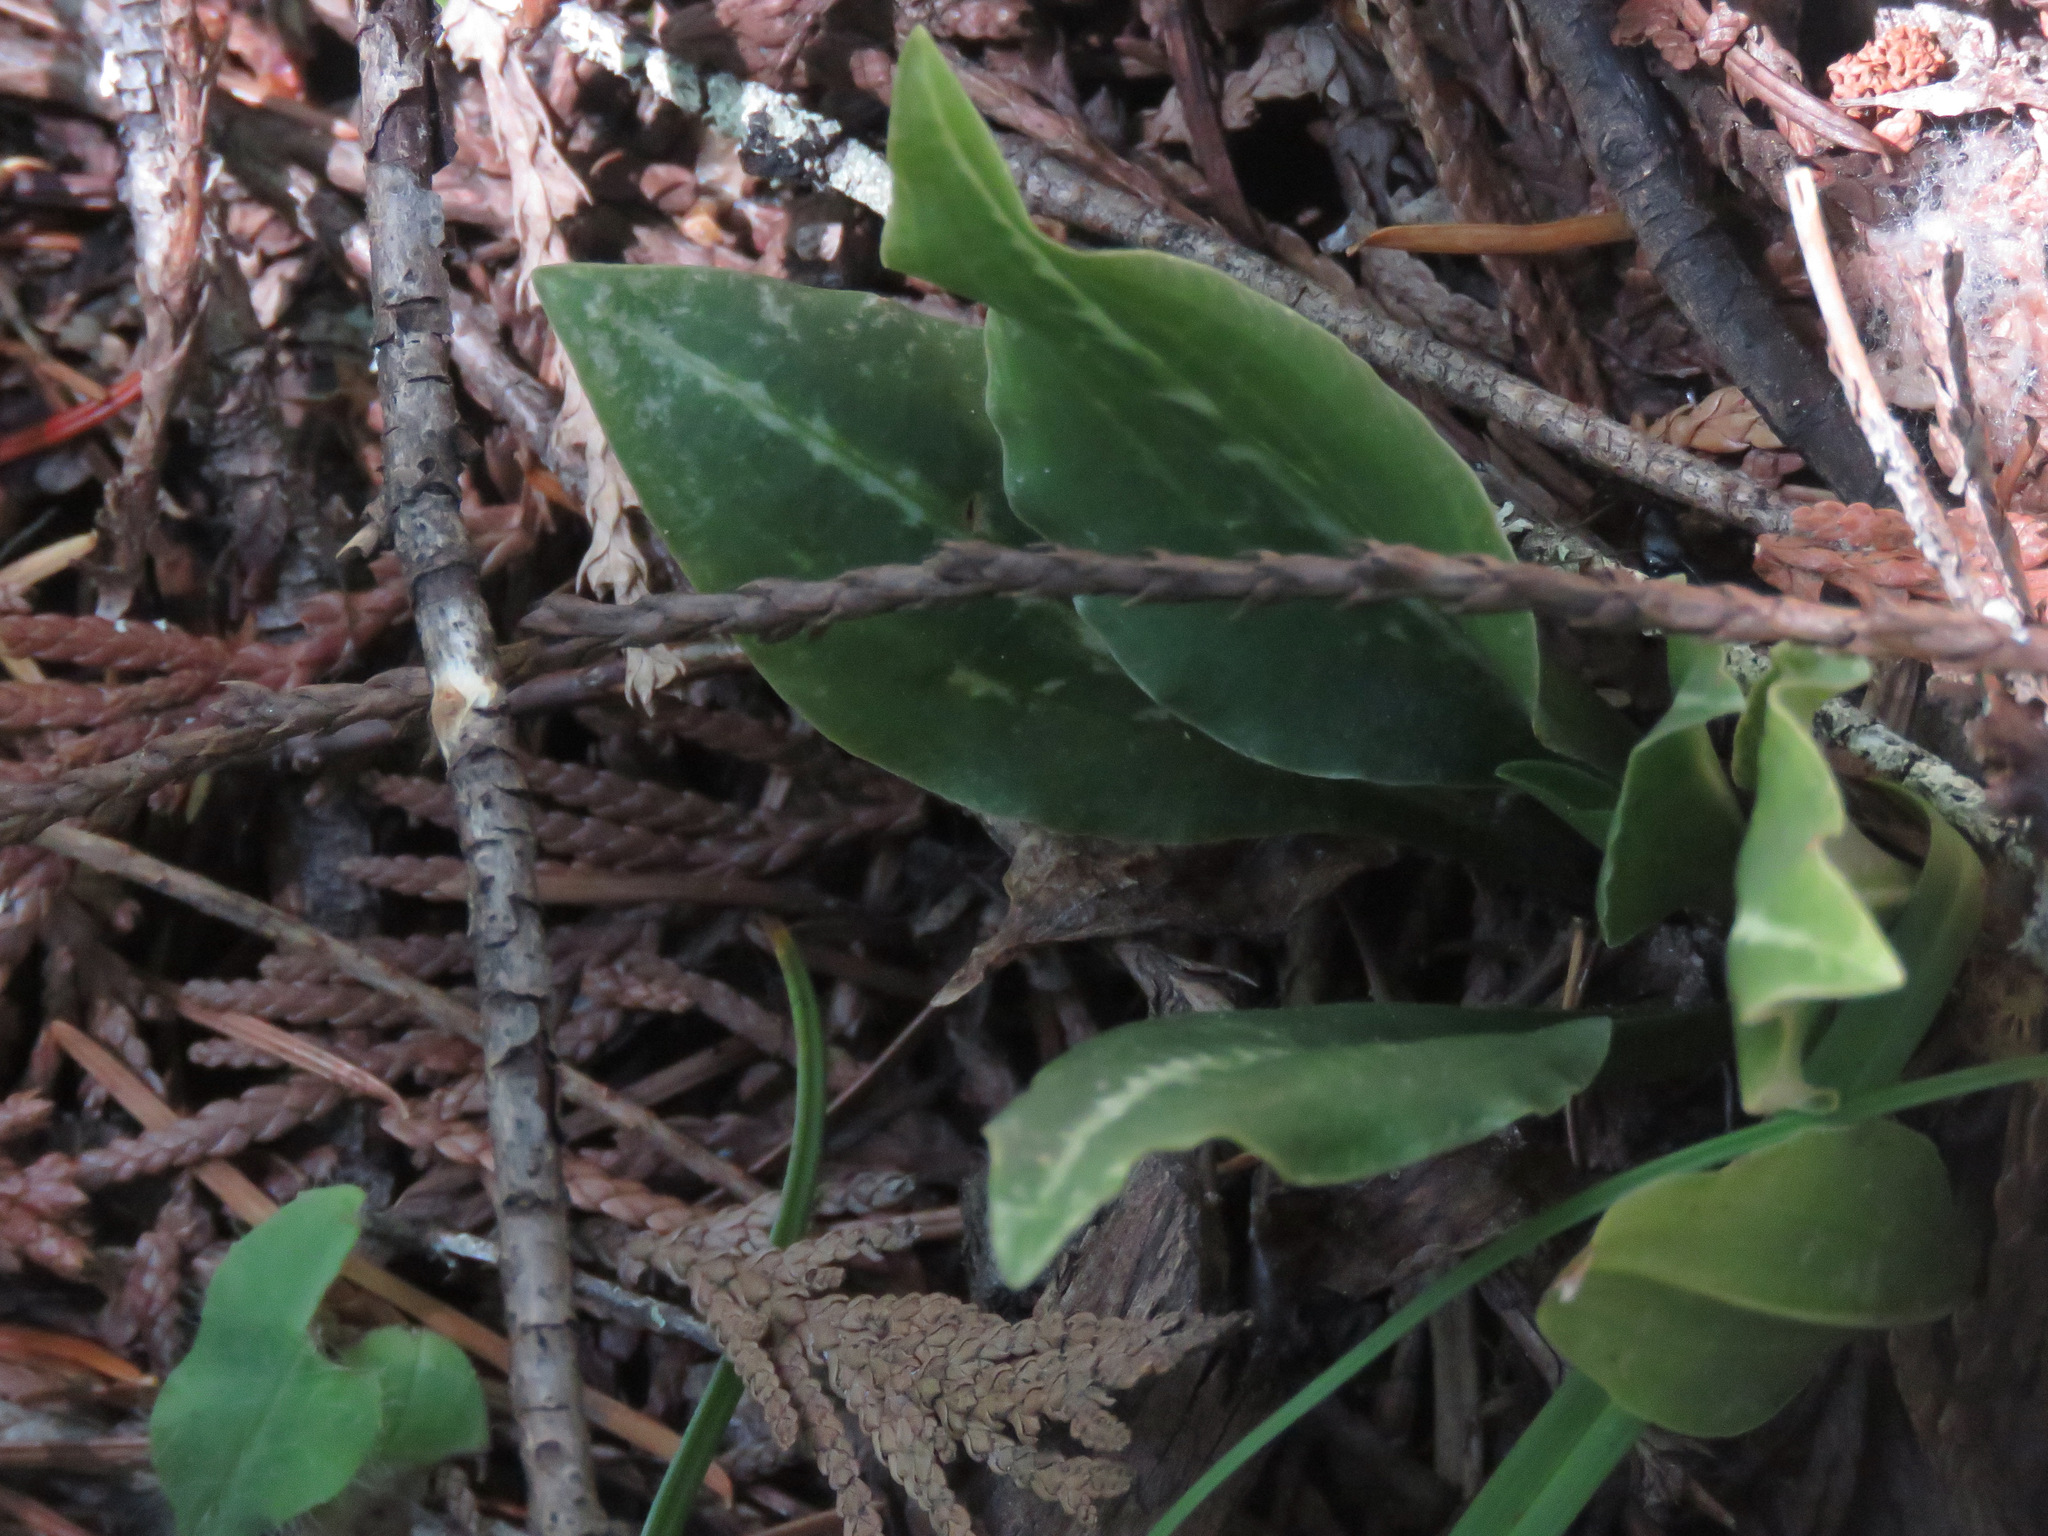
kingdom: Plantae
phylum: Tracheophyta
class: Liliopsida
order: Asparagales
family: Orchidaceae
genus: Goodyera
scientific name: Goodyera oblongifolia
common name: Giant rattlesnake-plantain
